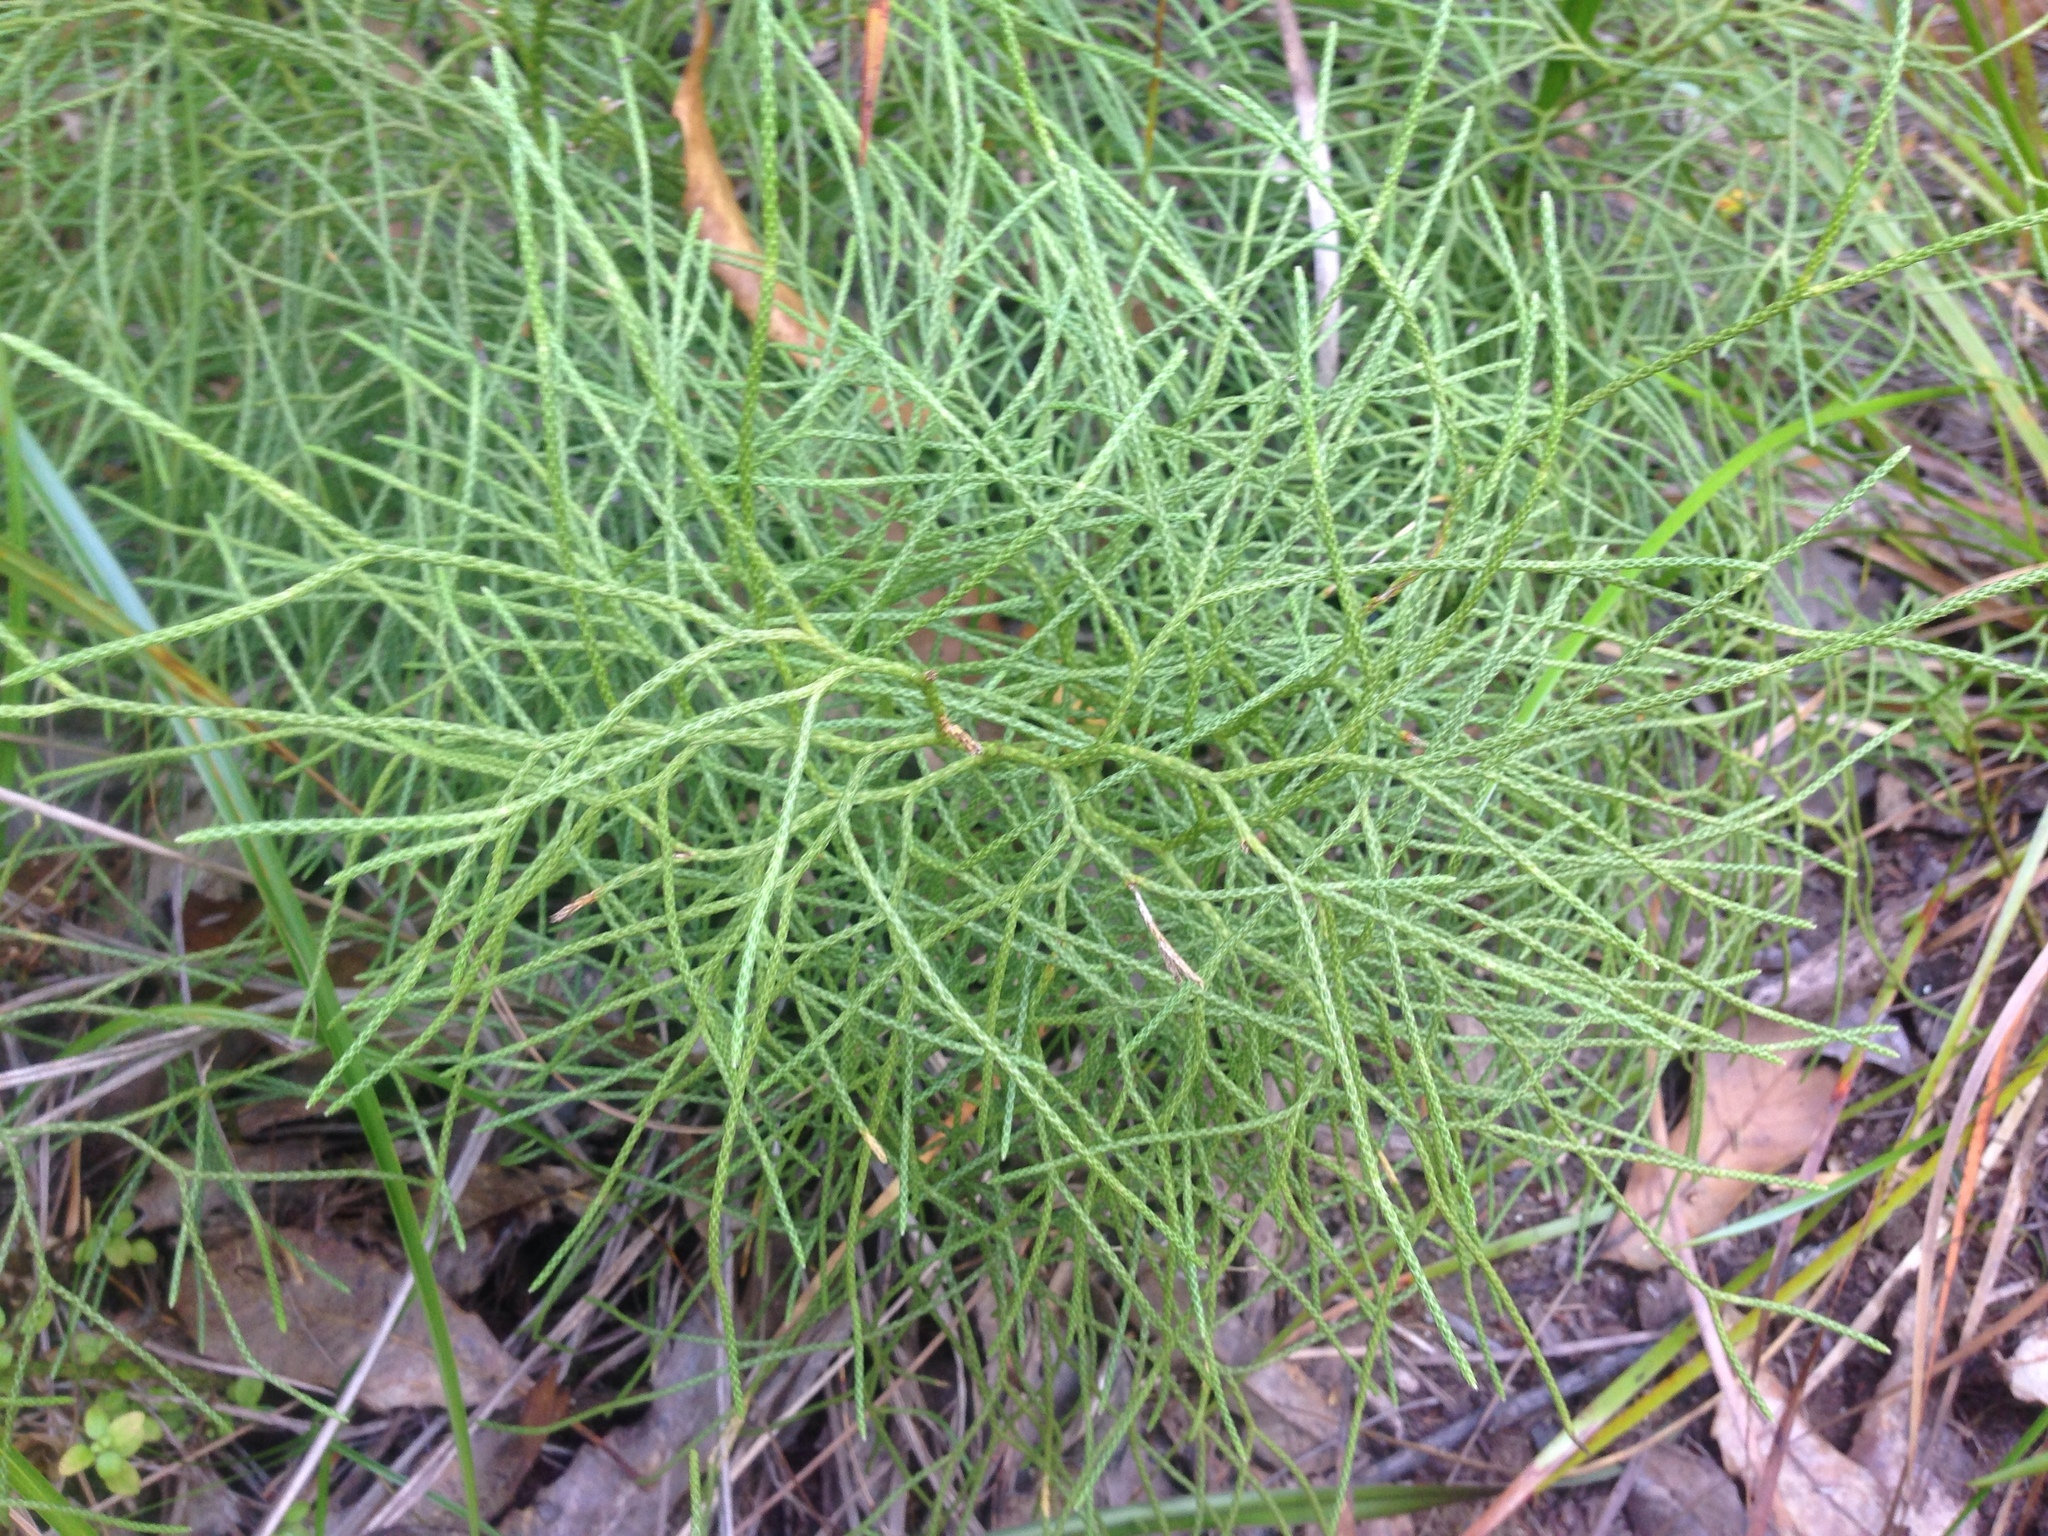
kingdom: Plantae
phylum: Tracheophyta
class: Lycopodiopsida
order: Lycopodiales
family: Lycopodiaceae
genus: Pseudolycopodium
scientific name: Pseudolycopodium densum
